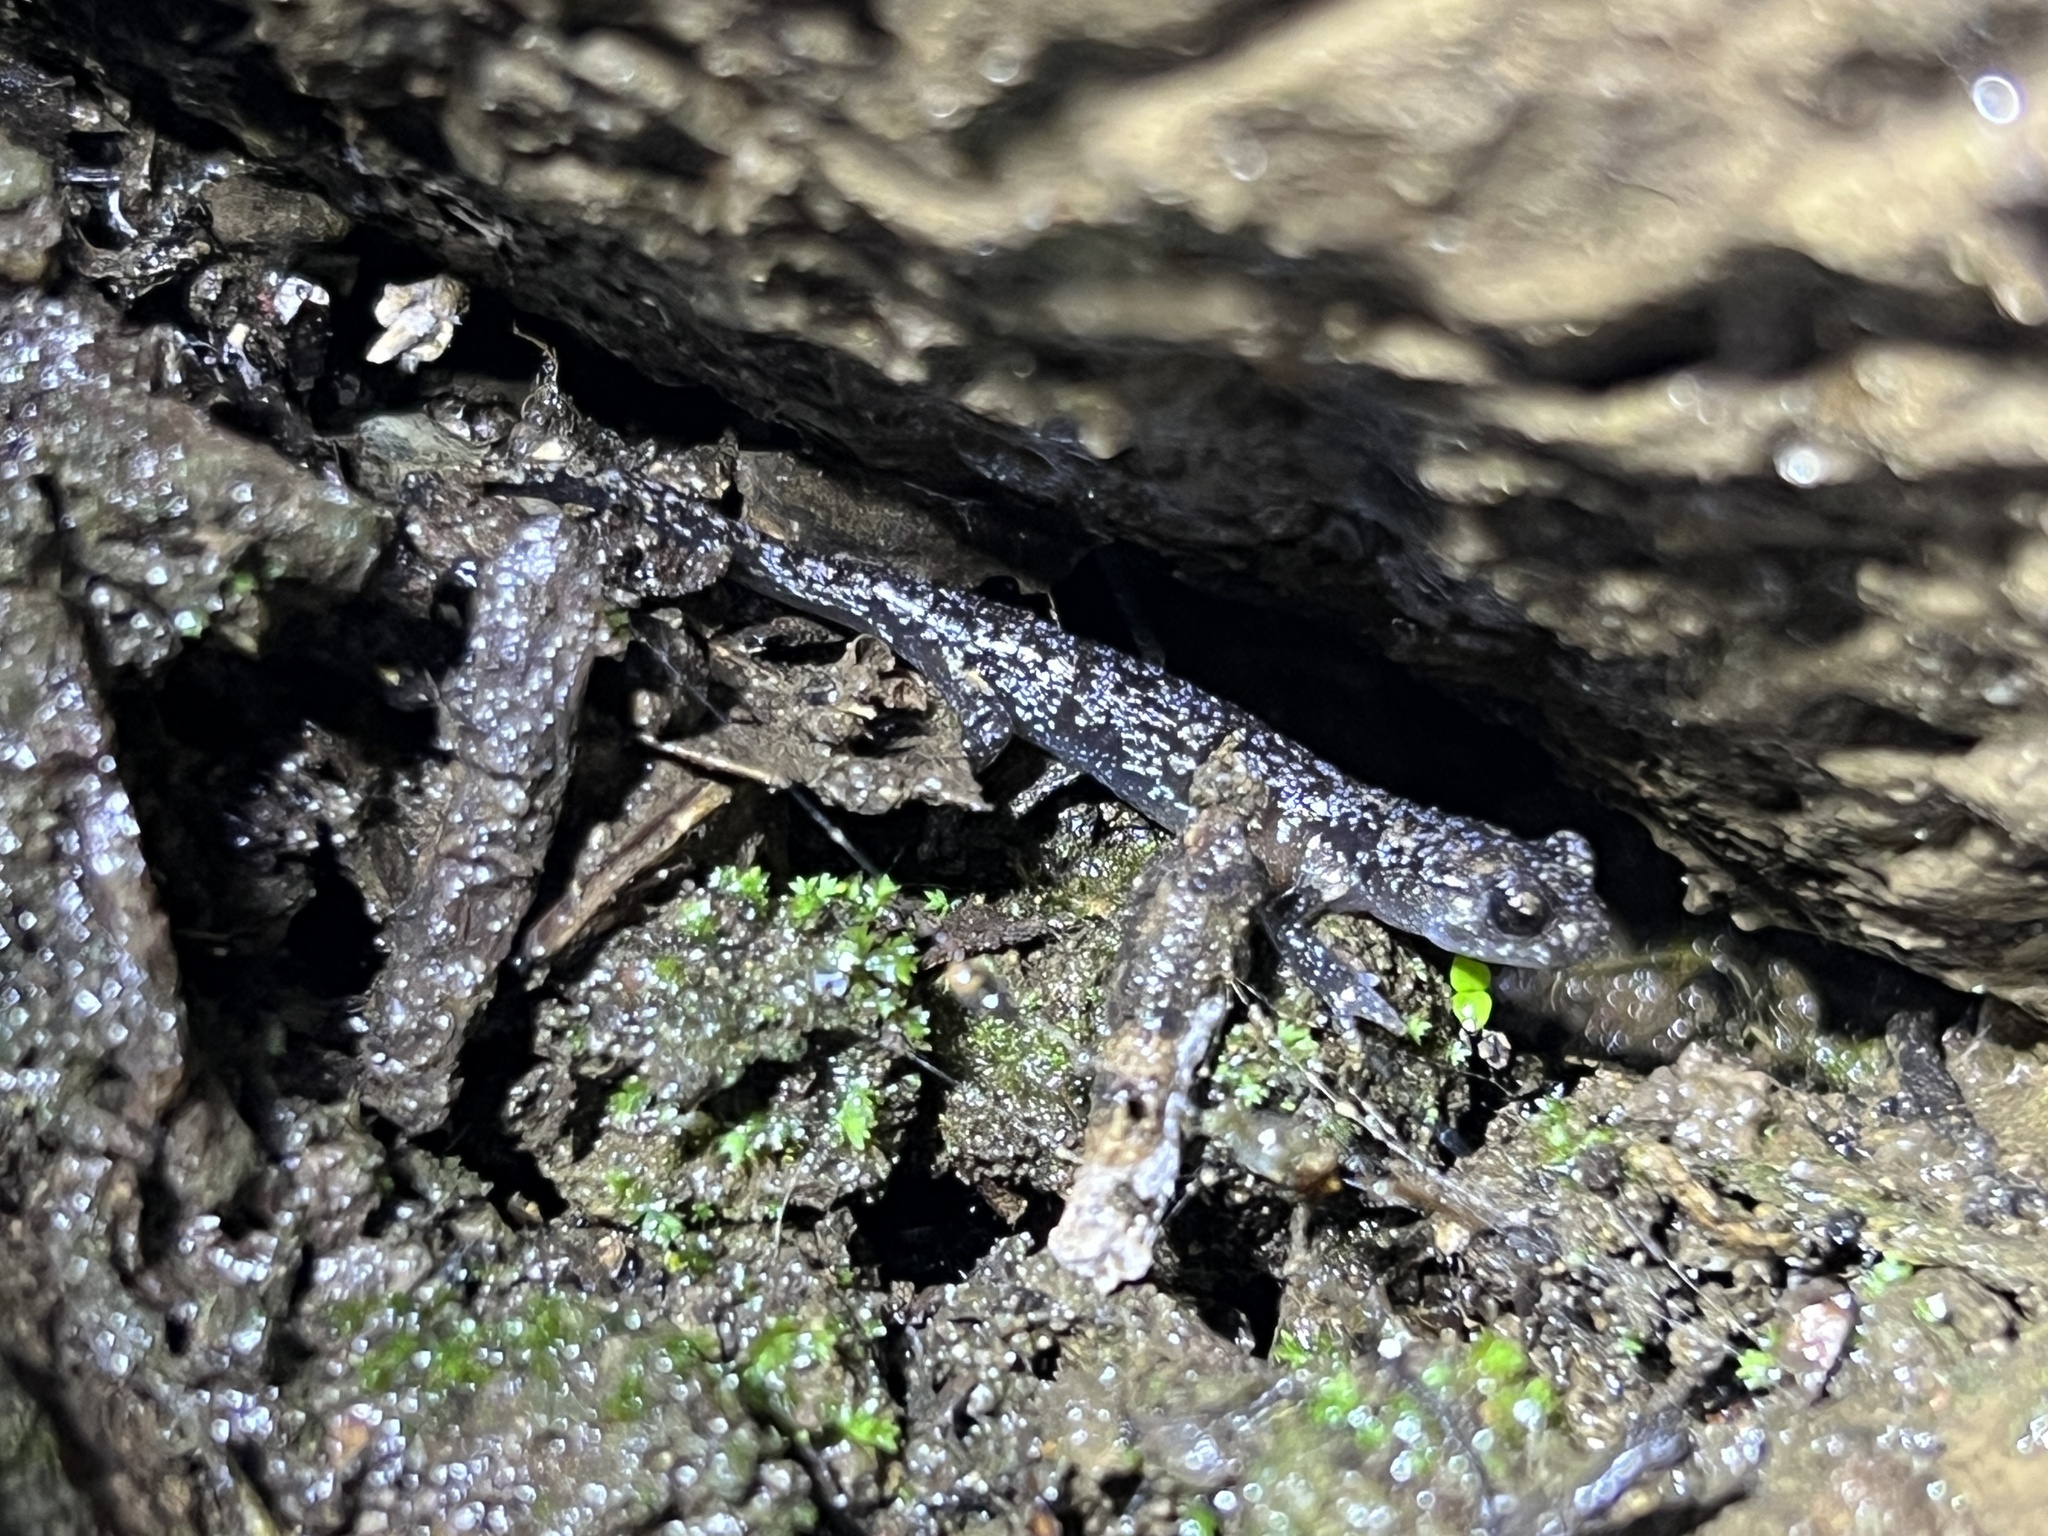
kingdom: Animalia
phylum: Chordata
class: Amphibia
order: Caudata
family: Plethodontidae
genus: Aneides
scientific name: Aneides lugubris
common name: Arboreal salamander
